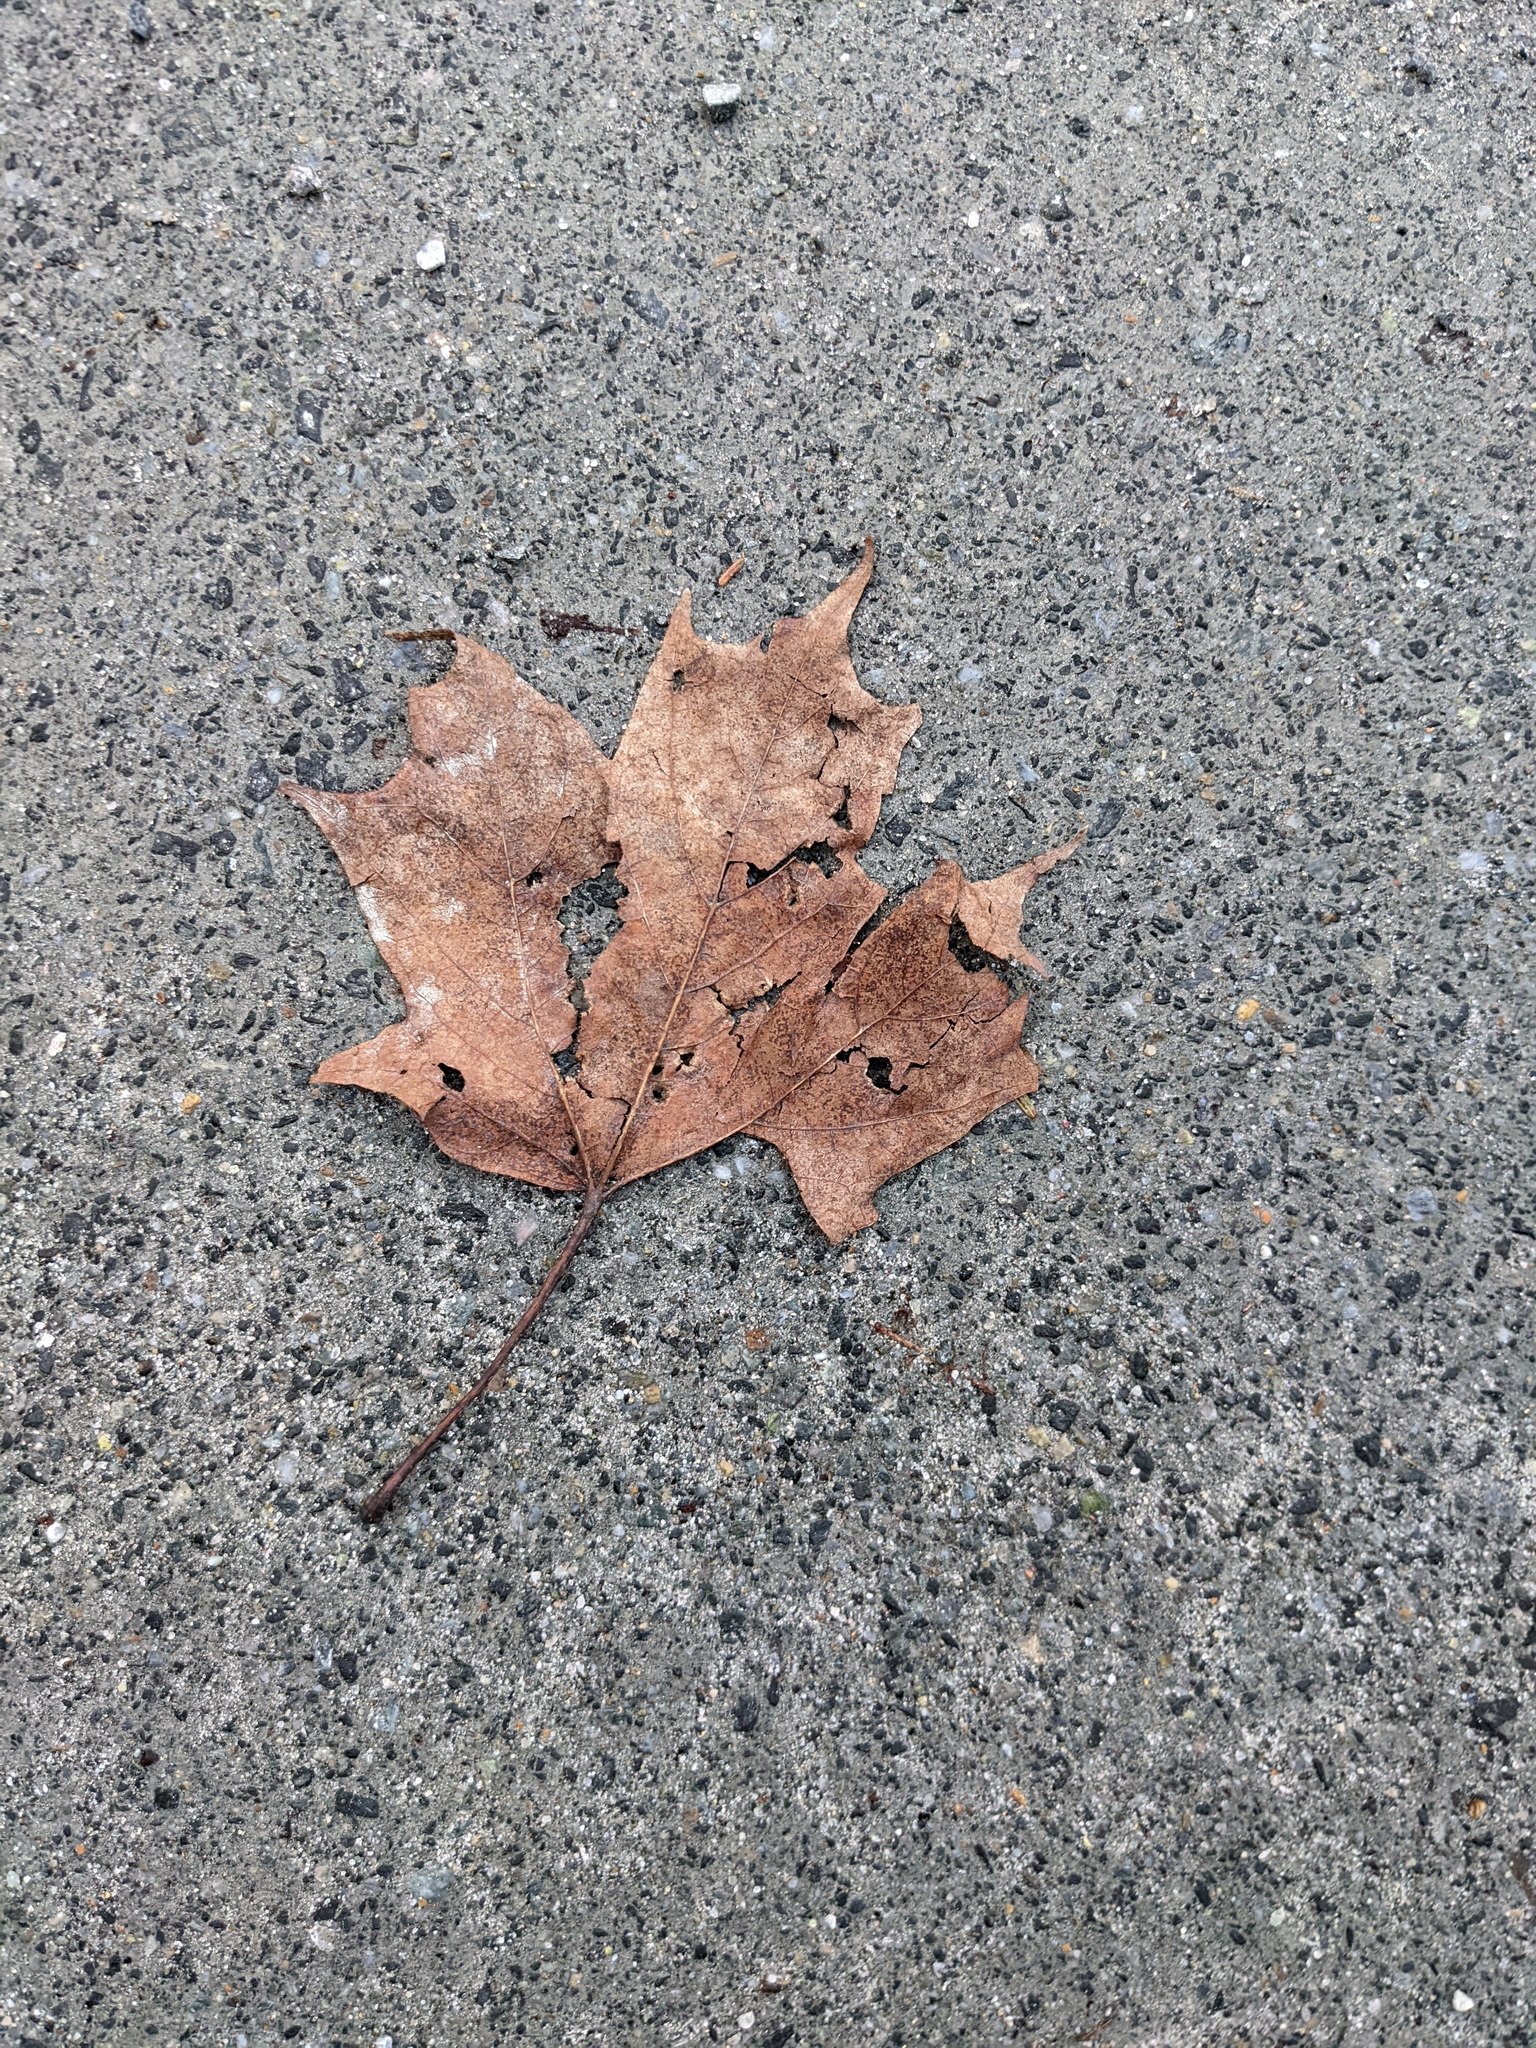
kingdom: Plantae
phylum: Tracheophyta
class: Magnoliopsida
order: Sapindales
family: Sapindaceae
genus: Acer
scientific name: Acer saccharum
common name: Sugar maple
